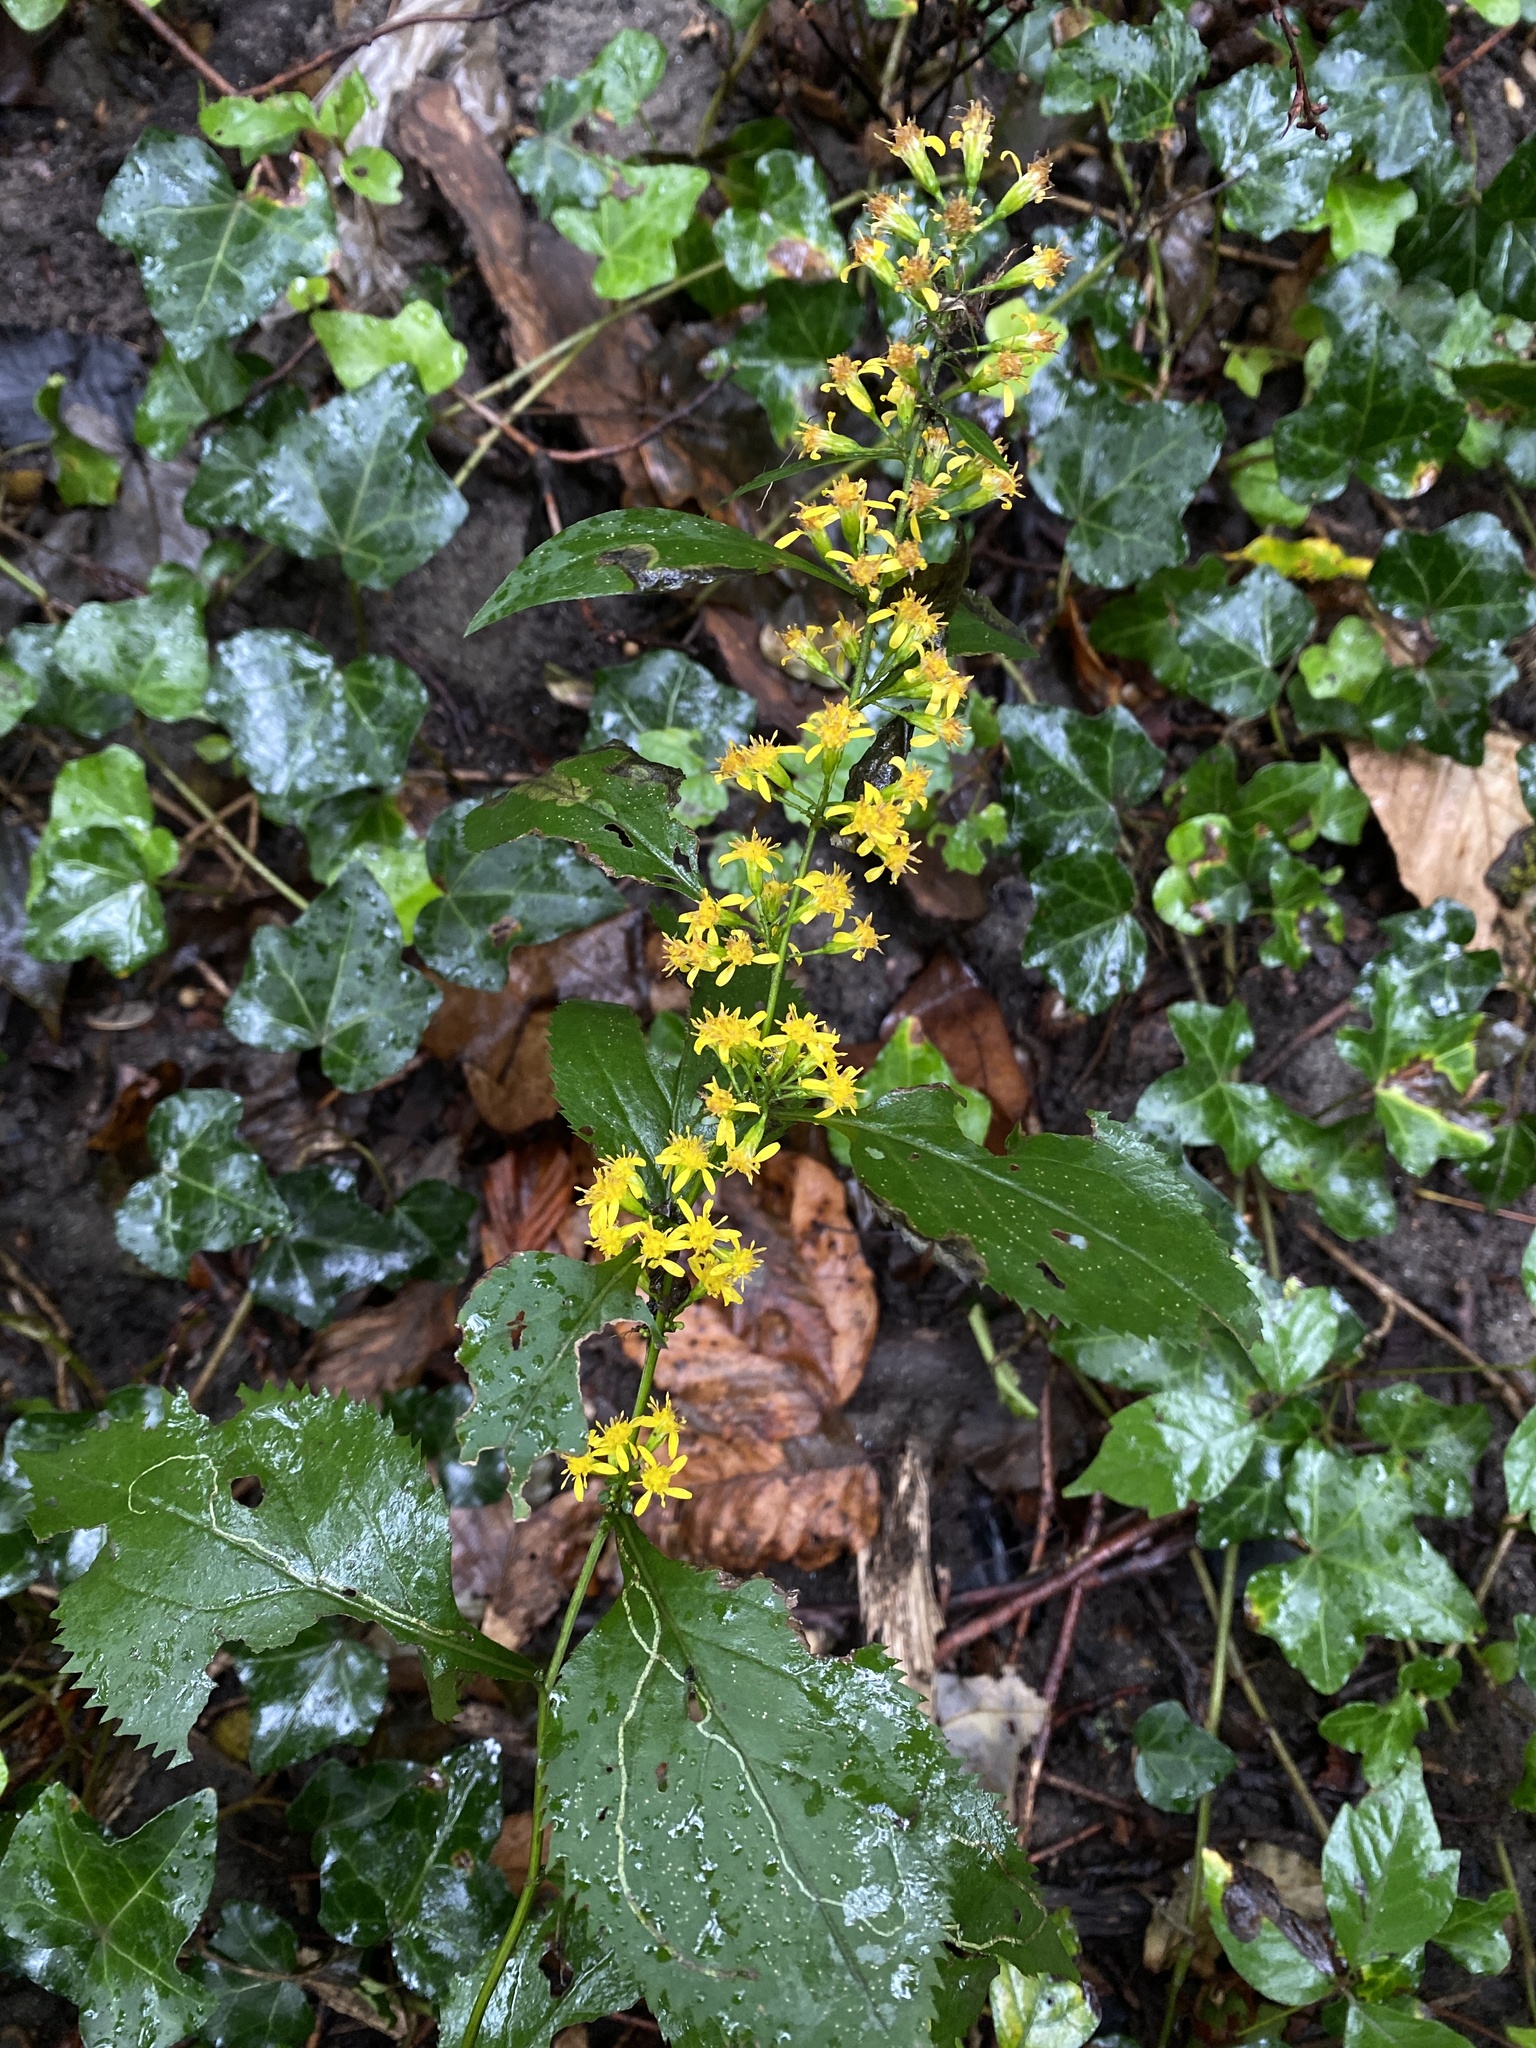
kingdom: Plantae
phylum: Tracheophyta
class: Magnoliopsida
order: Asterales
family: Asteraceae
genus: Solidago
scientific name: Solidago flexicaulis
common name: Zig-zag goldenrod
